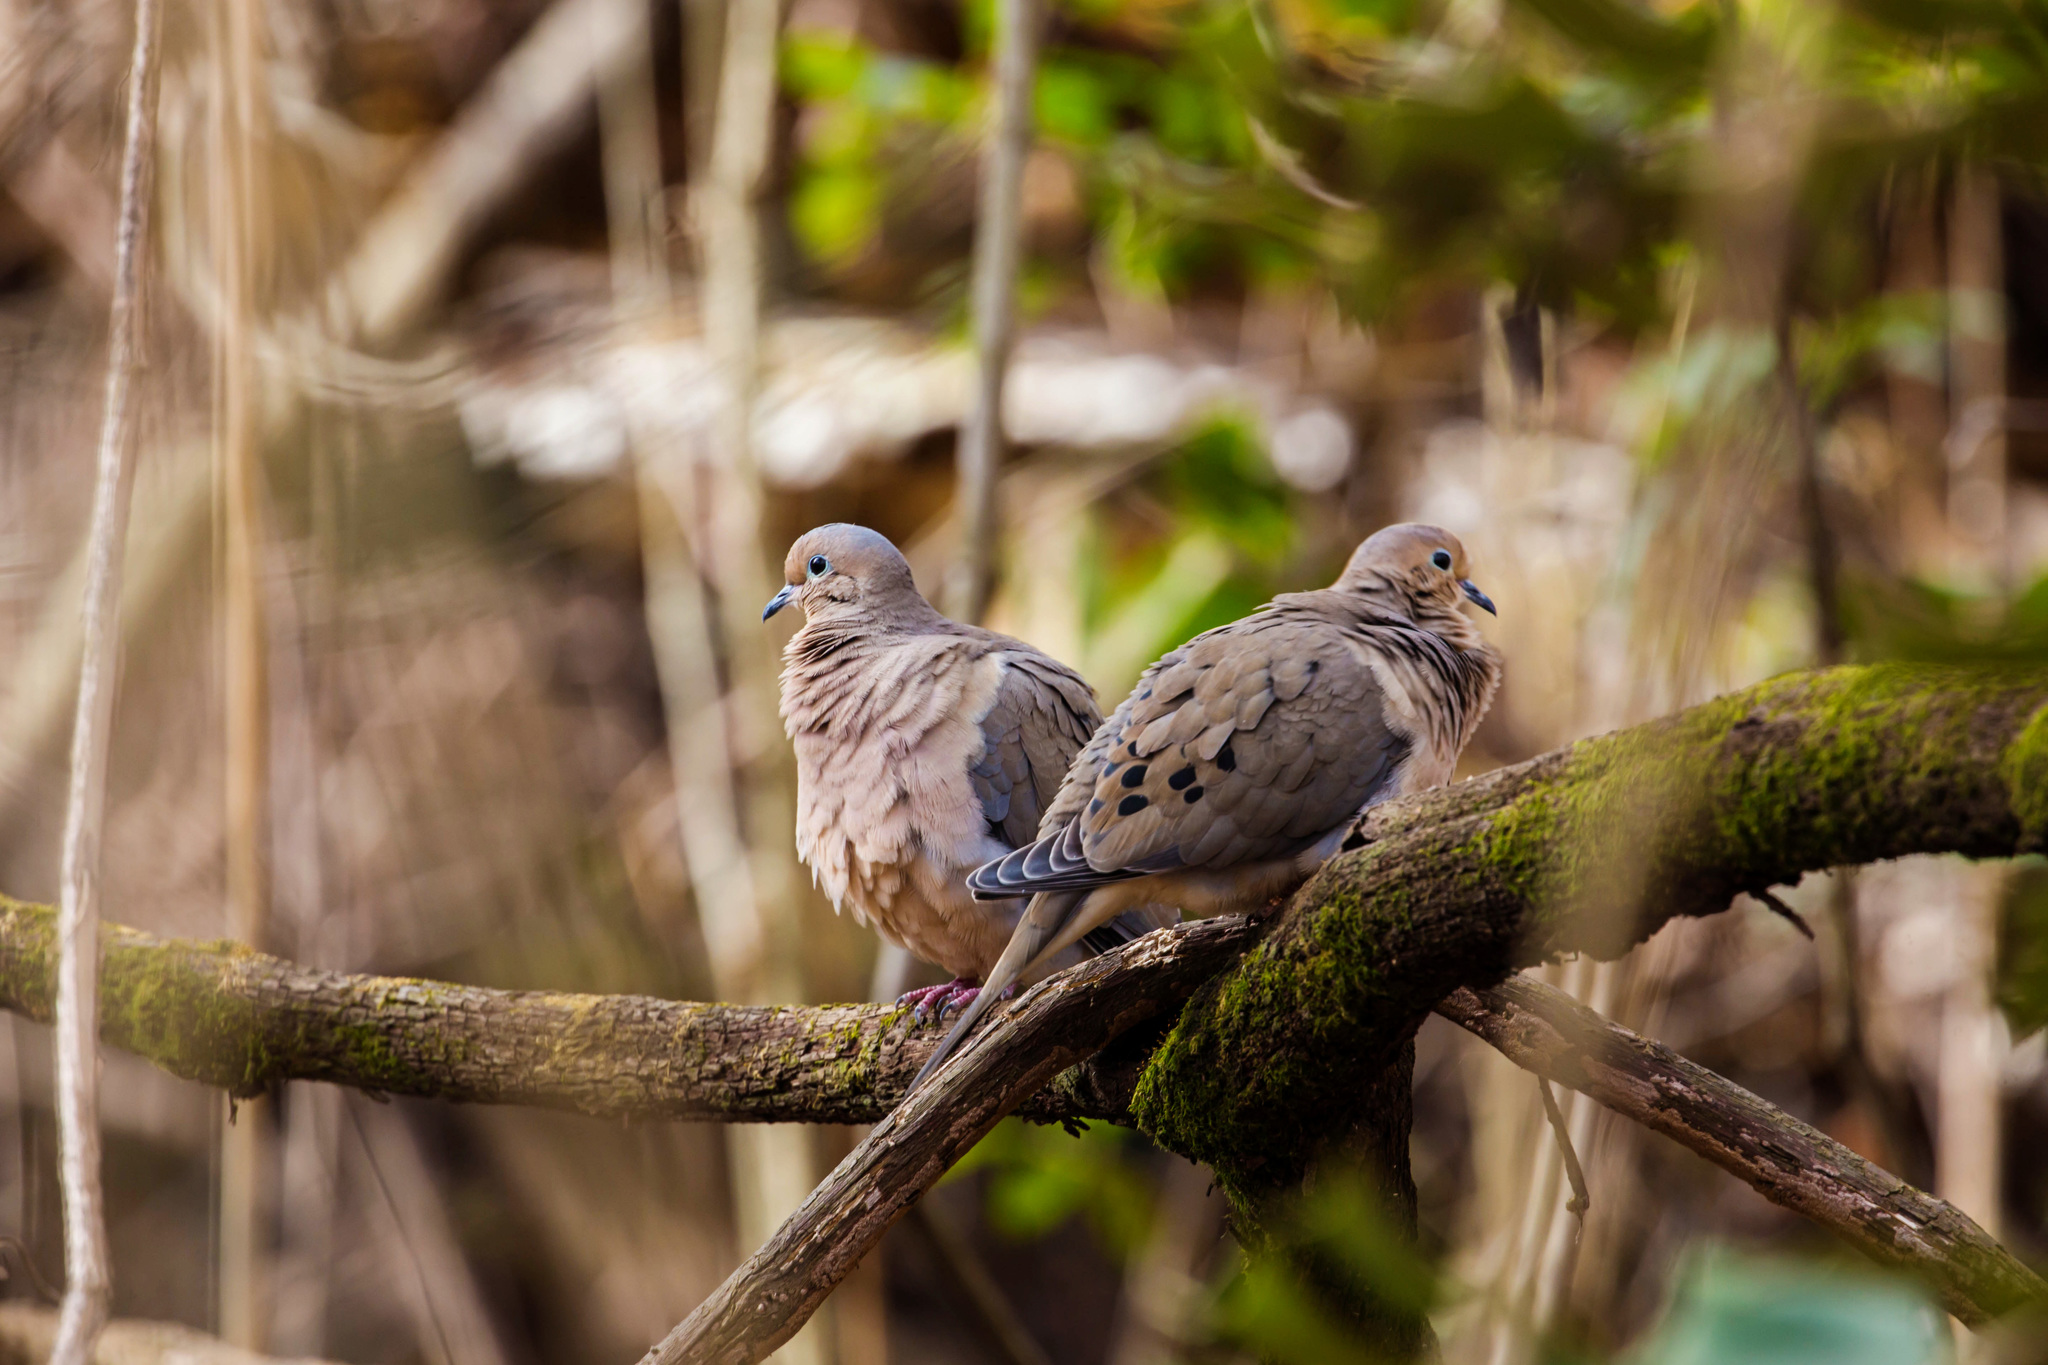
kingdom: Animalia
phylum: Chordata
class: Aves
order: Columbiformes
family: Columbidae
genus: Zenaida
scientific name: Zenaida macroura
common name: Mourning dove
